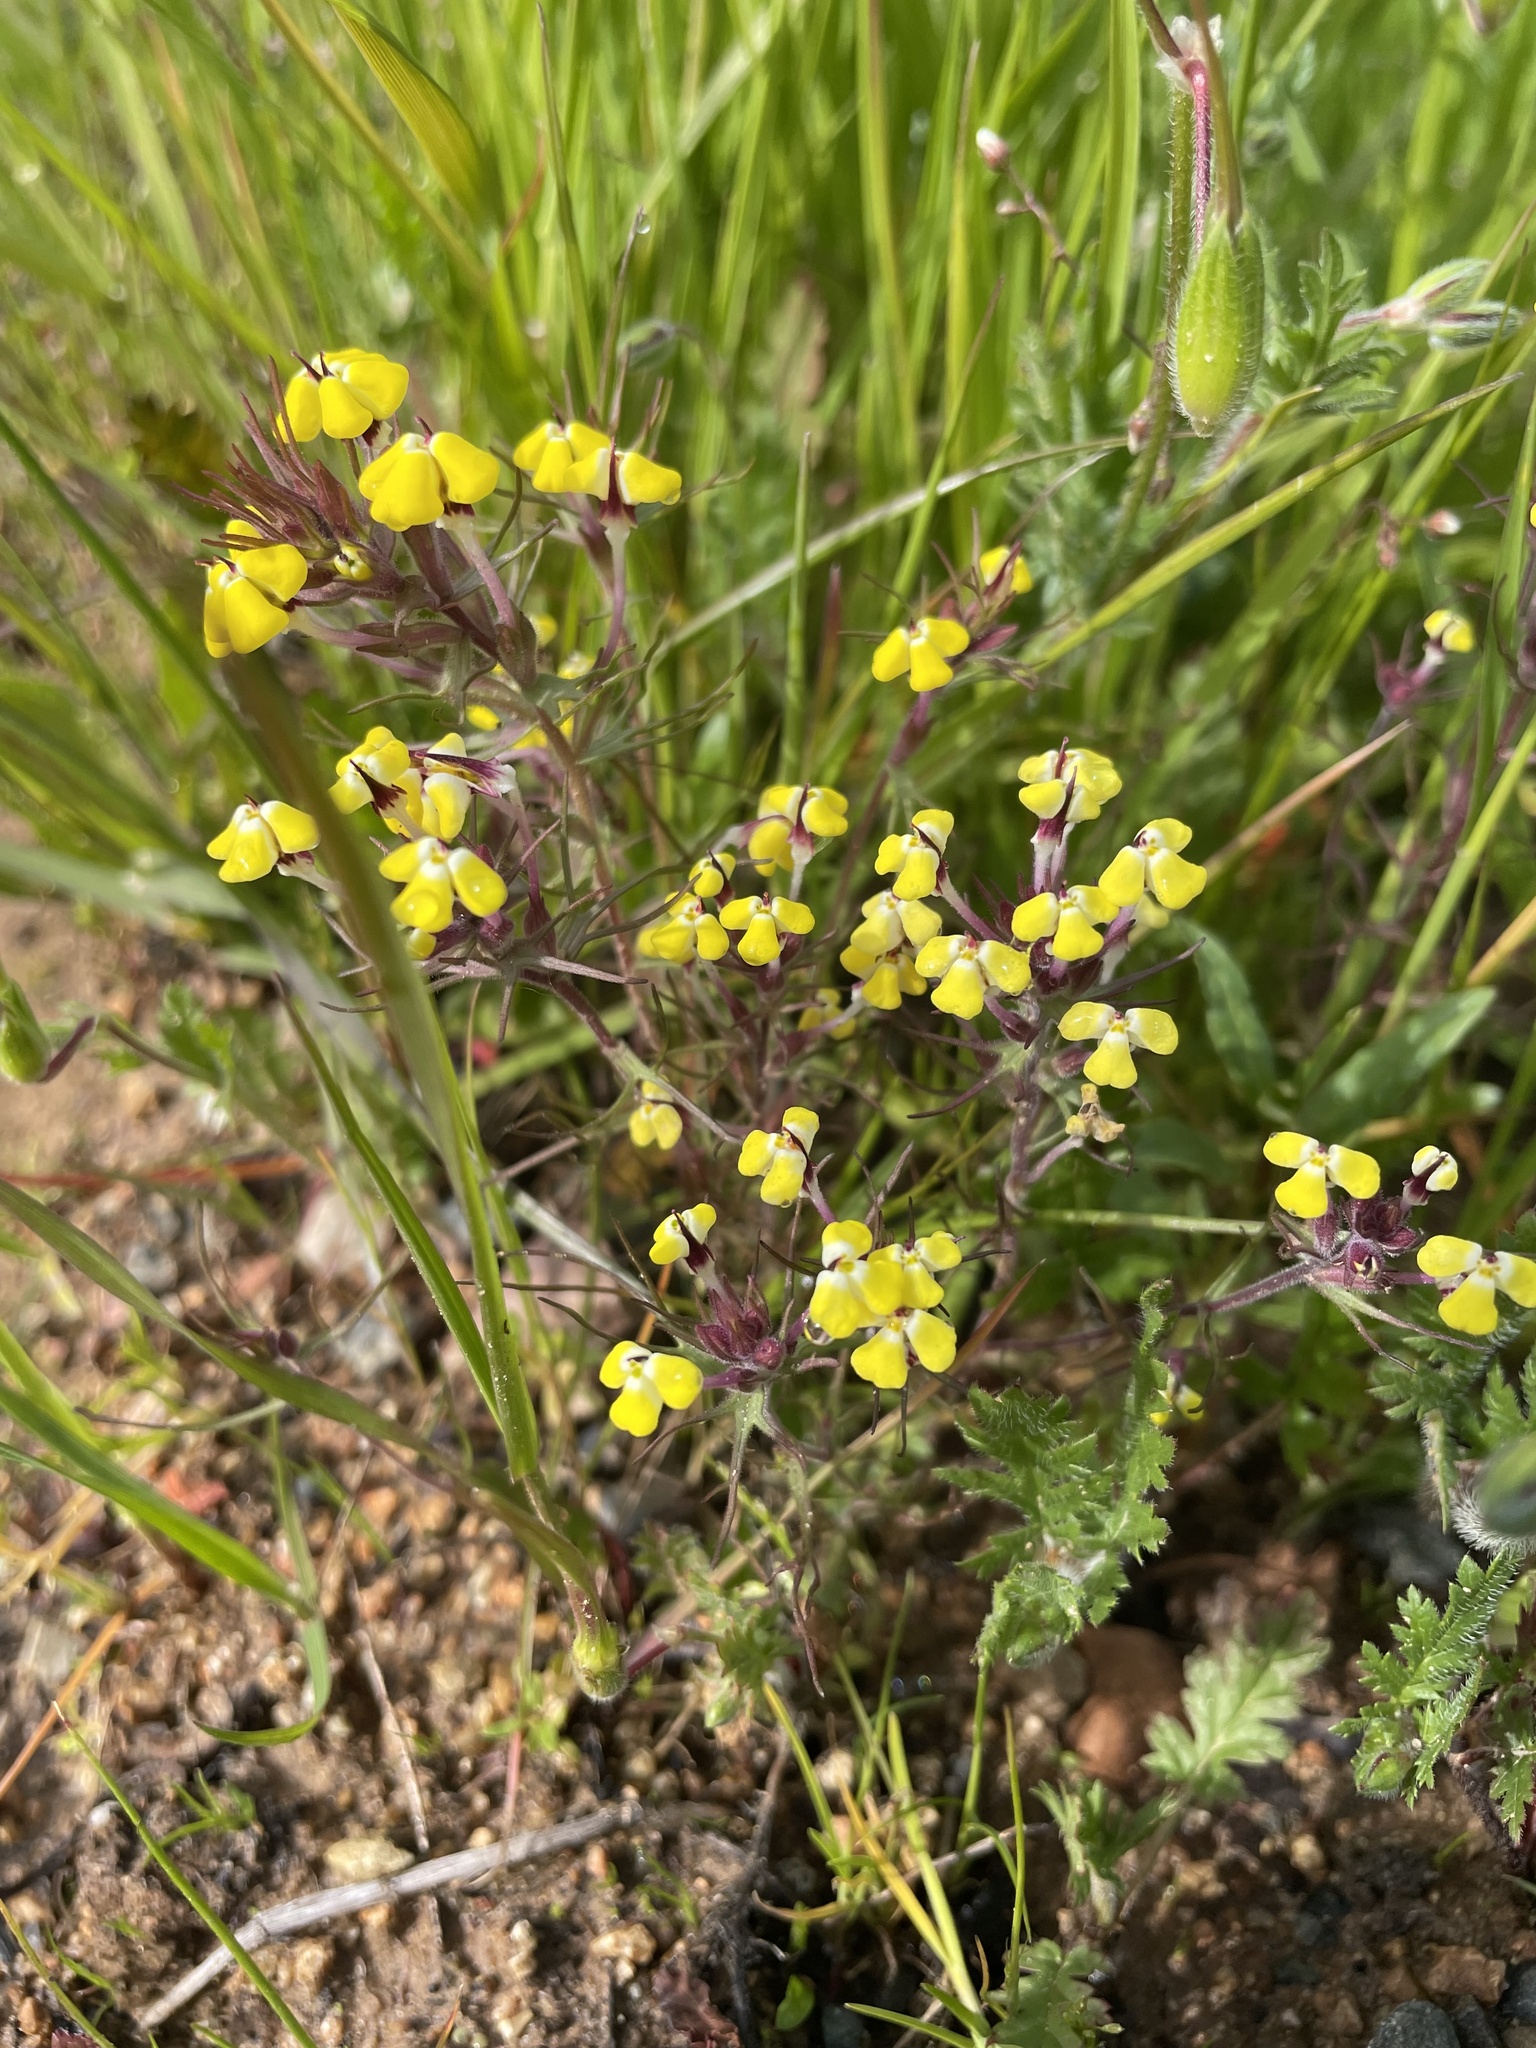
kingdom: Plantae
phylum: Tracheophyta
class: Magnoliopsida
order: Lamiales
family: Orobanchaceae
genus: Triphysaria
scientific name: Triphysaria eriantha
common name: Johnny-tuck
